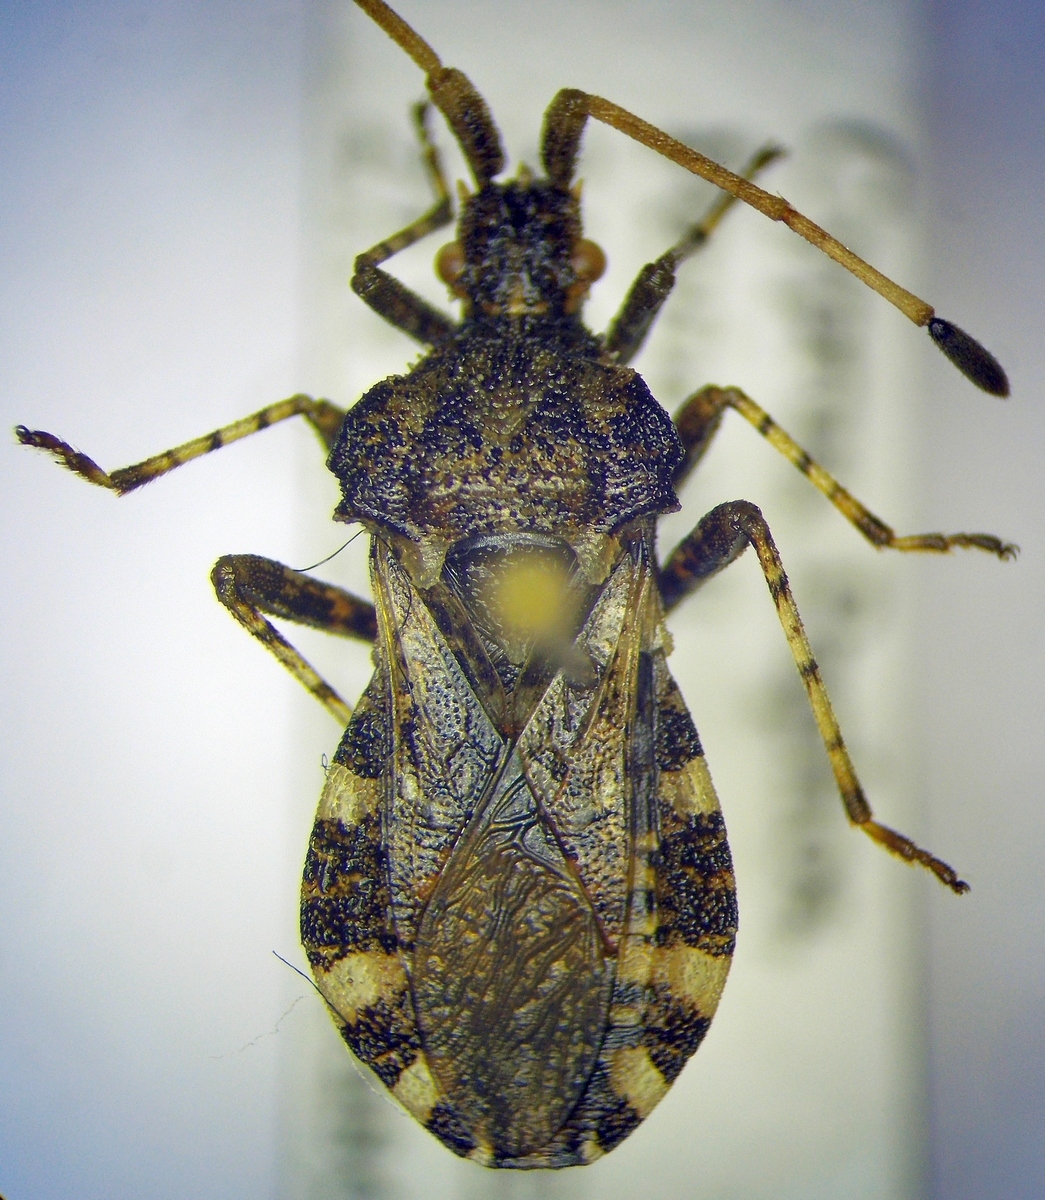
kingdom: Animalia
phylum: Arthropoda
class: Insecta
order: Hemiptera
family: Coreidae
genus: Centrocoris
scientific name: Centrocoris variegatus
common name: Leaf-footed bug
